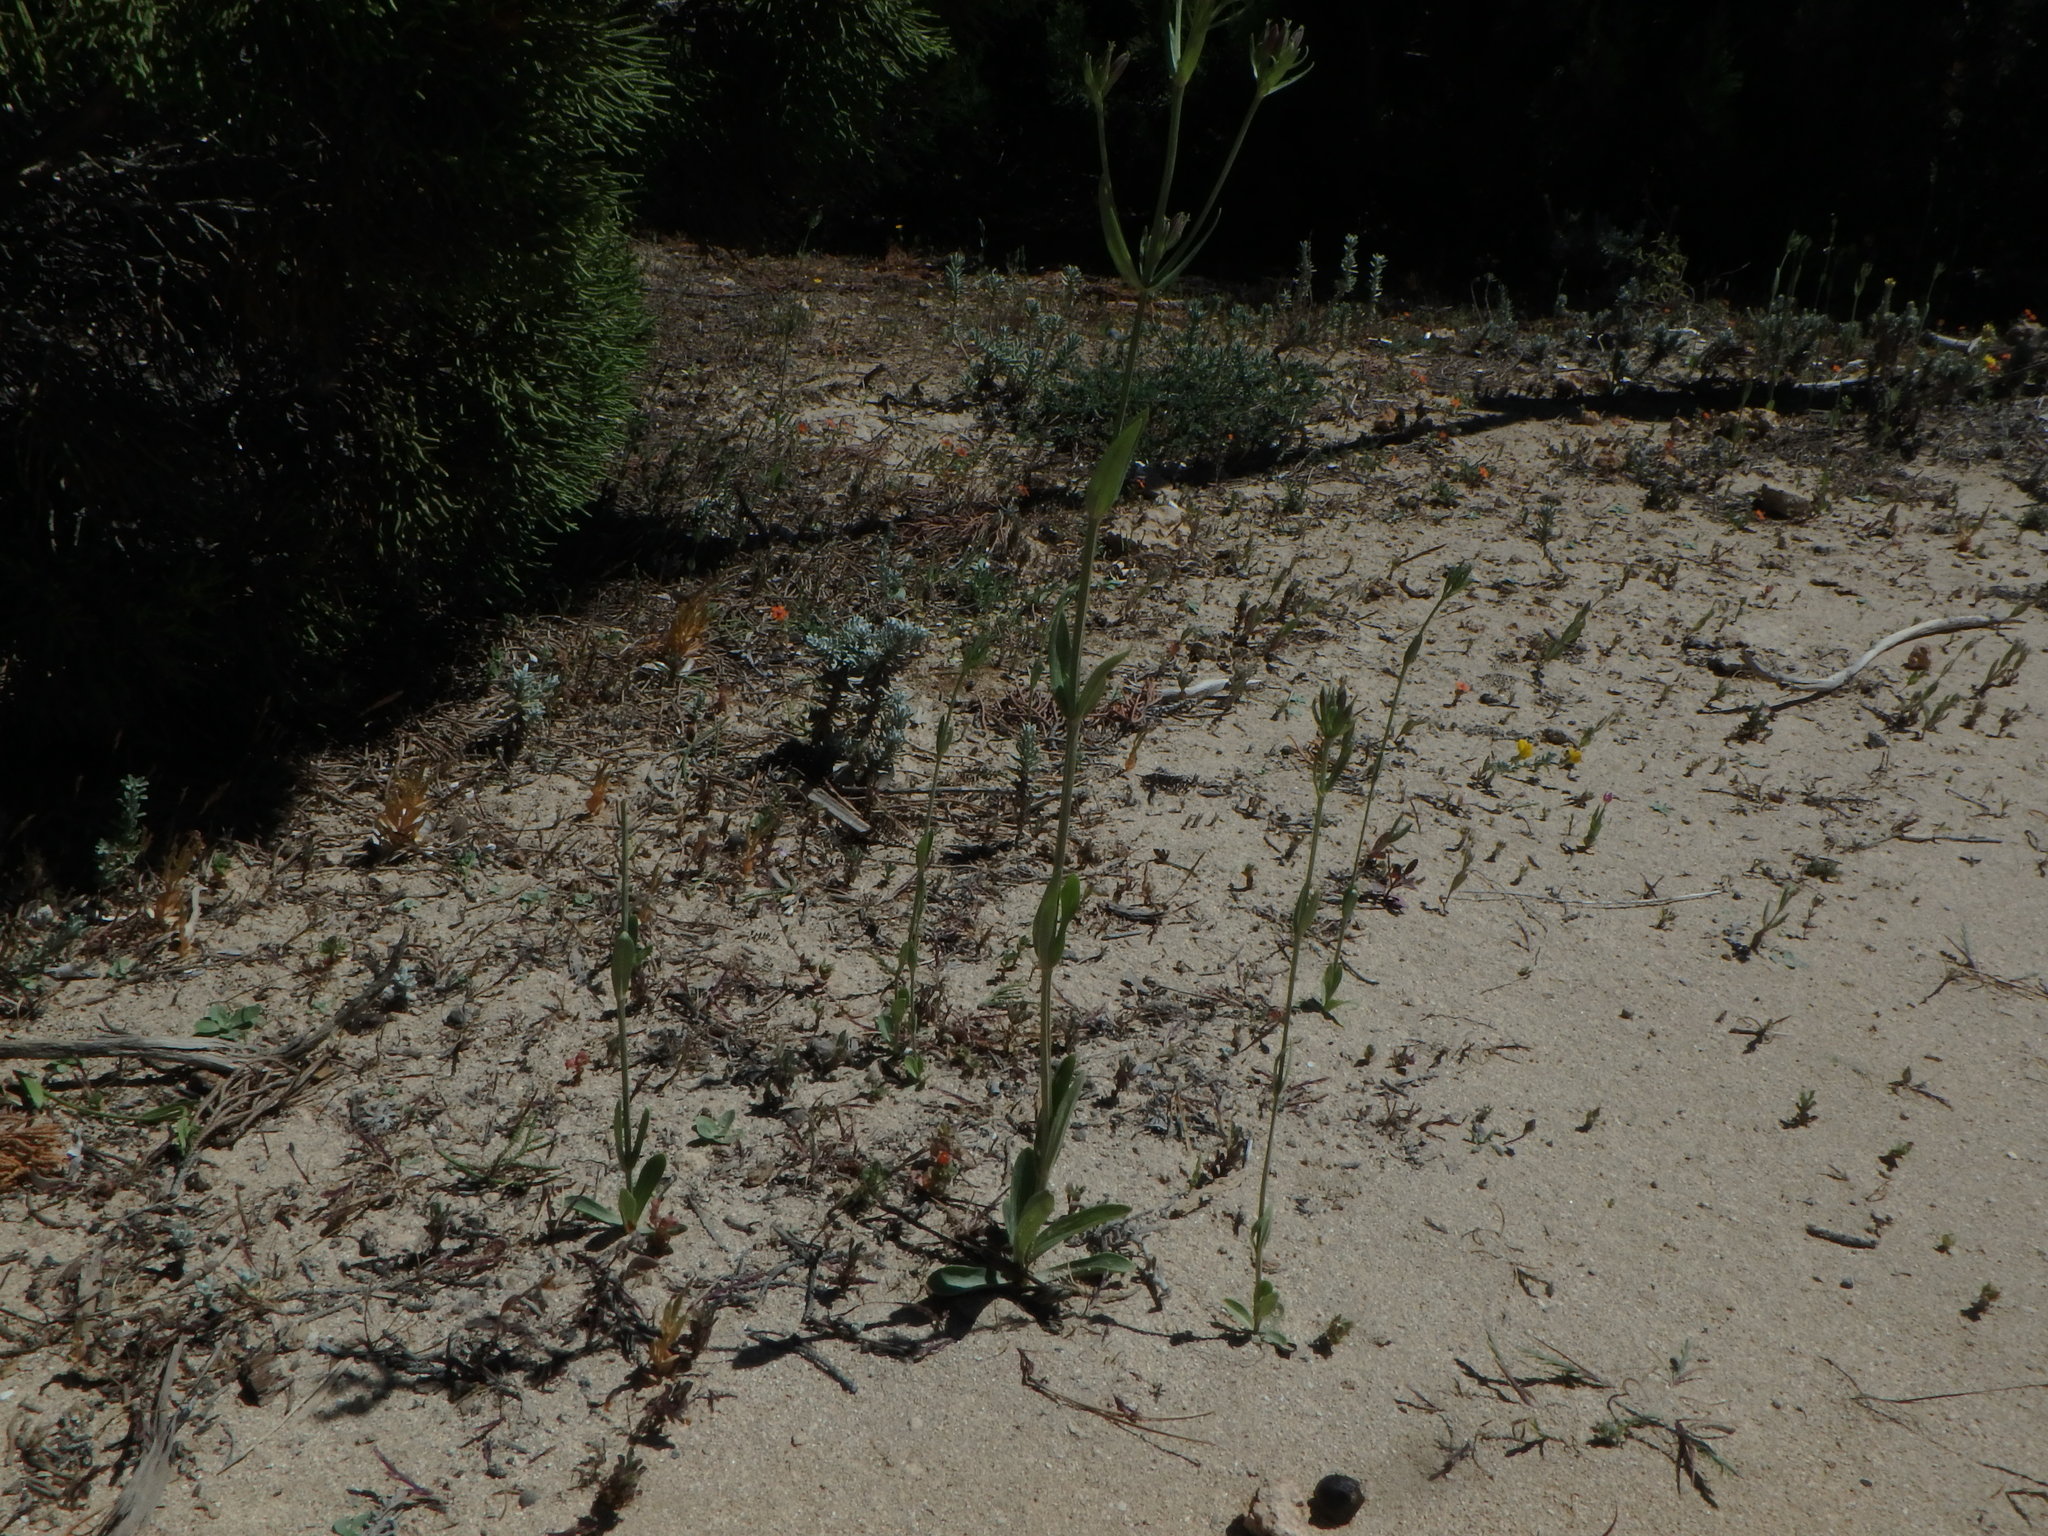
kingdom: Plantae
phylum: Tracheophyta
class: Magnoliopsida
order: Gentianales
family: Gentianaceae
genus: Centaurium
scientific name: Centaurium erythraea
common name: Common centaury
